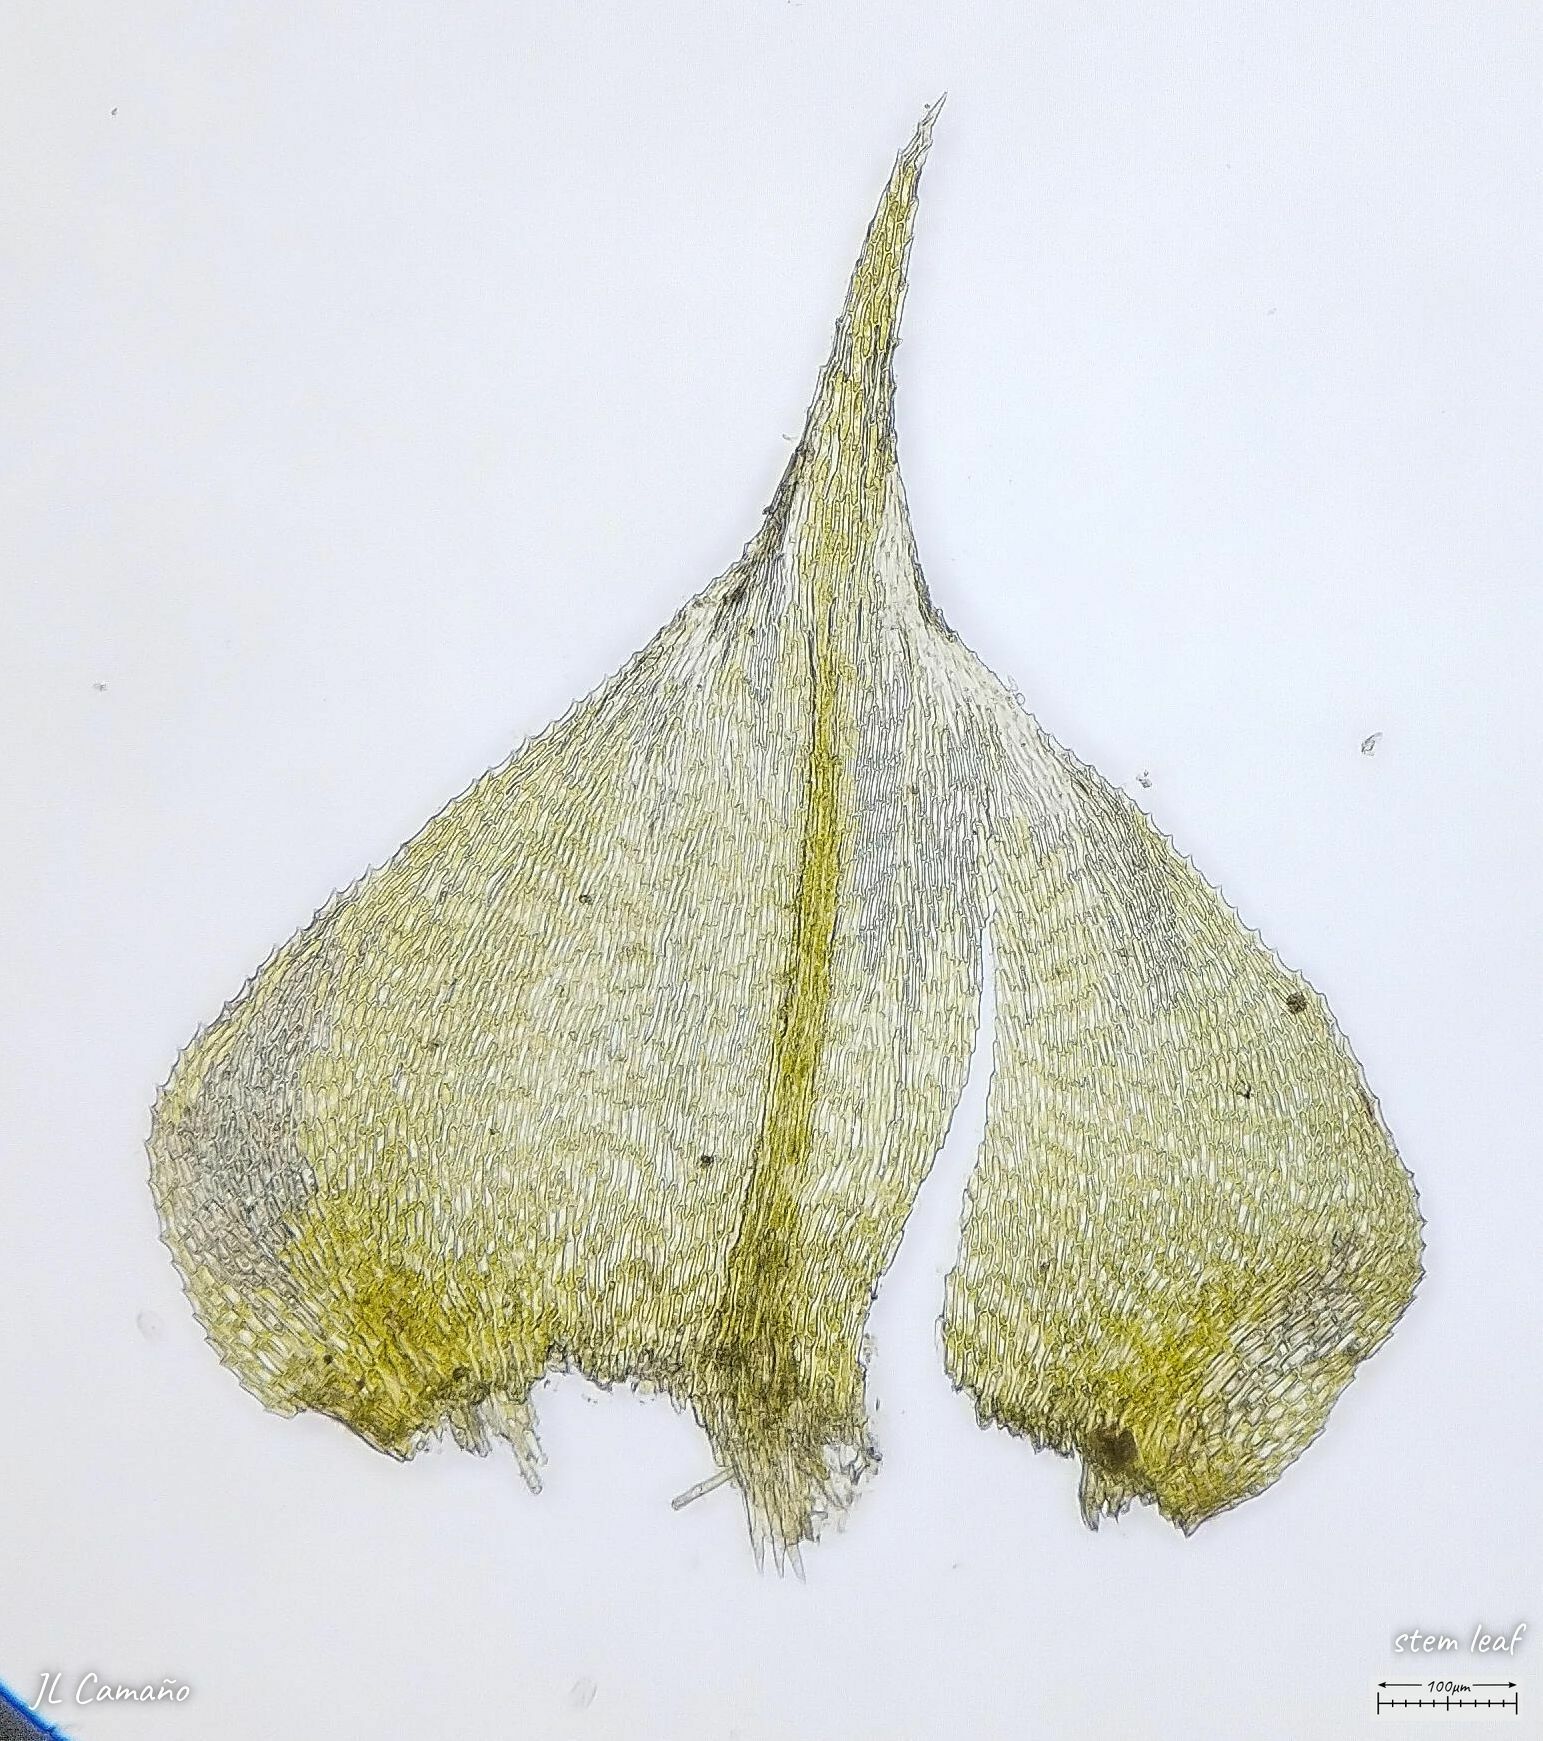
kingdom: Plantae
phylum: Bryophyta
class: Bryopsida
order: Hypnales
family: Neckeraceae
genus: Thamnobryum
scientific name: Thamnobryum alopecurum
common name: Fox-tail feather-moss
